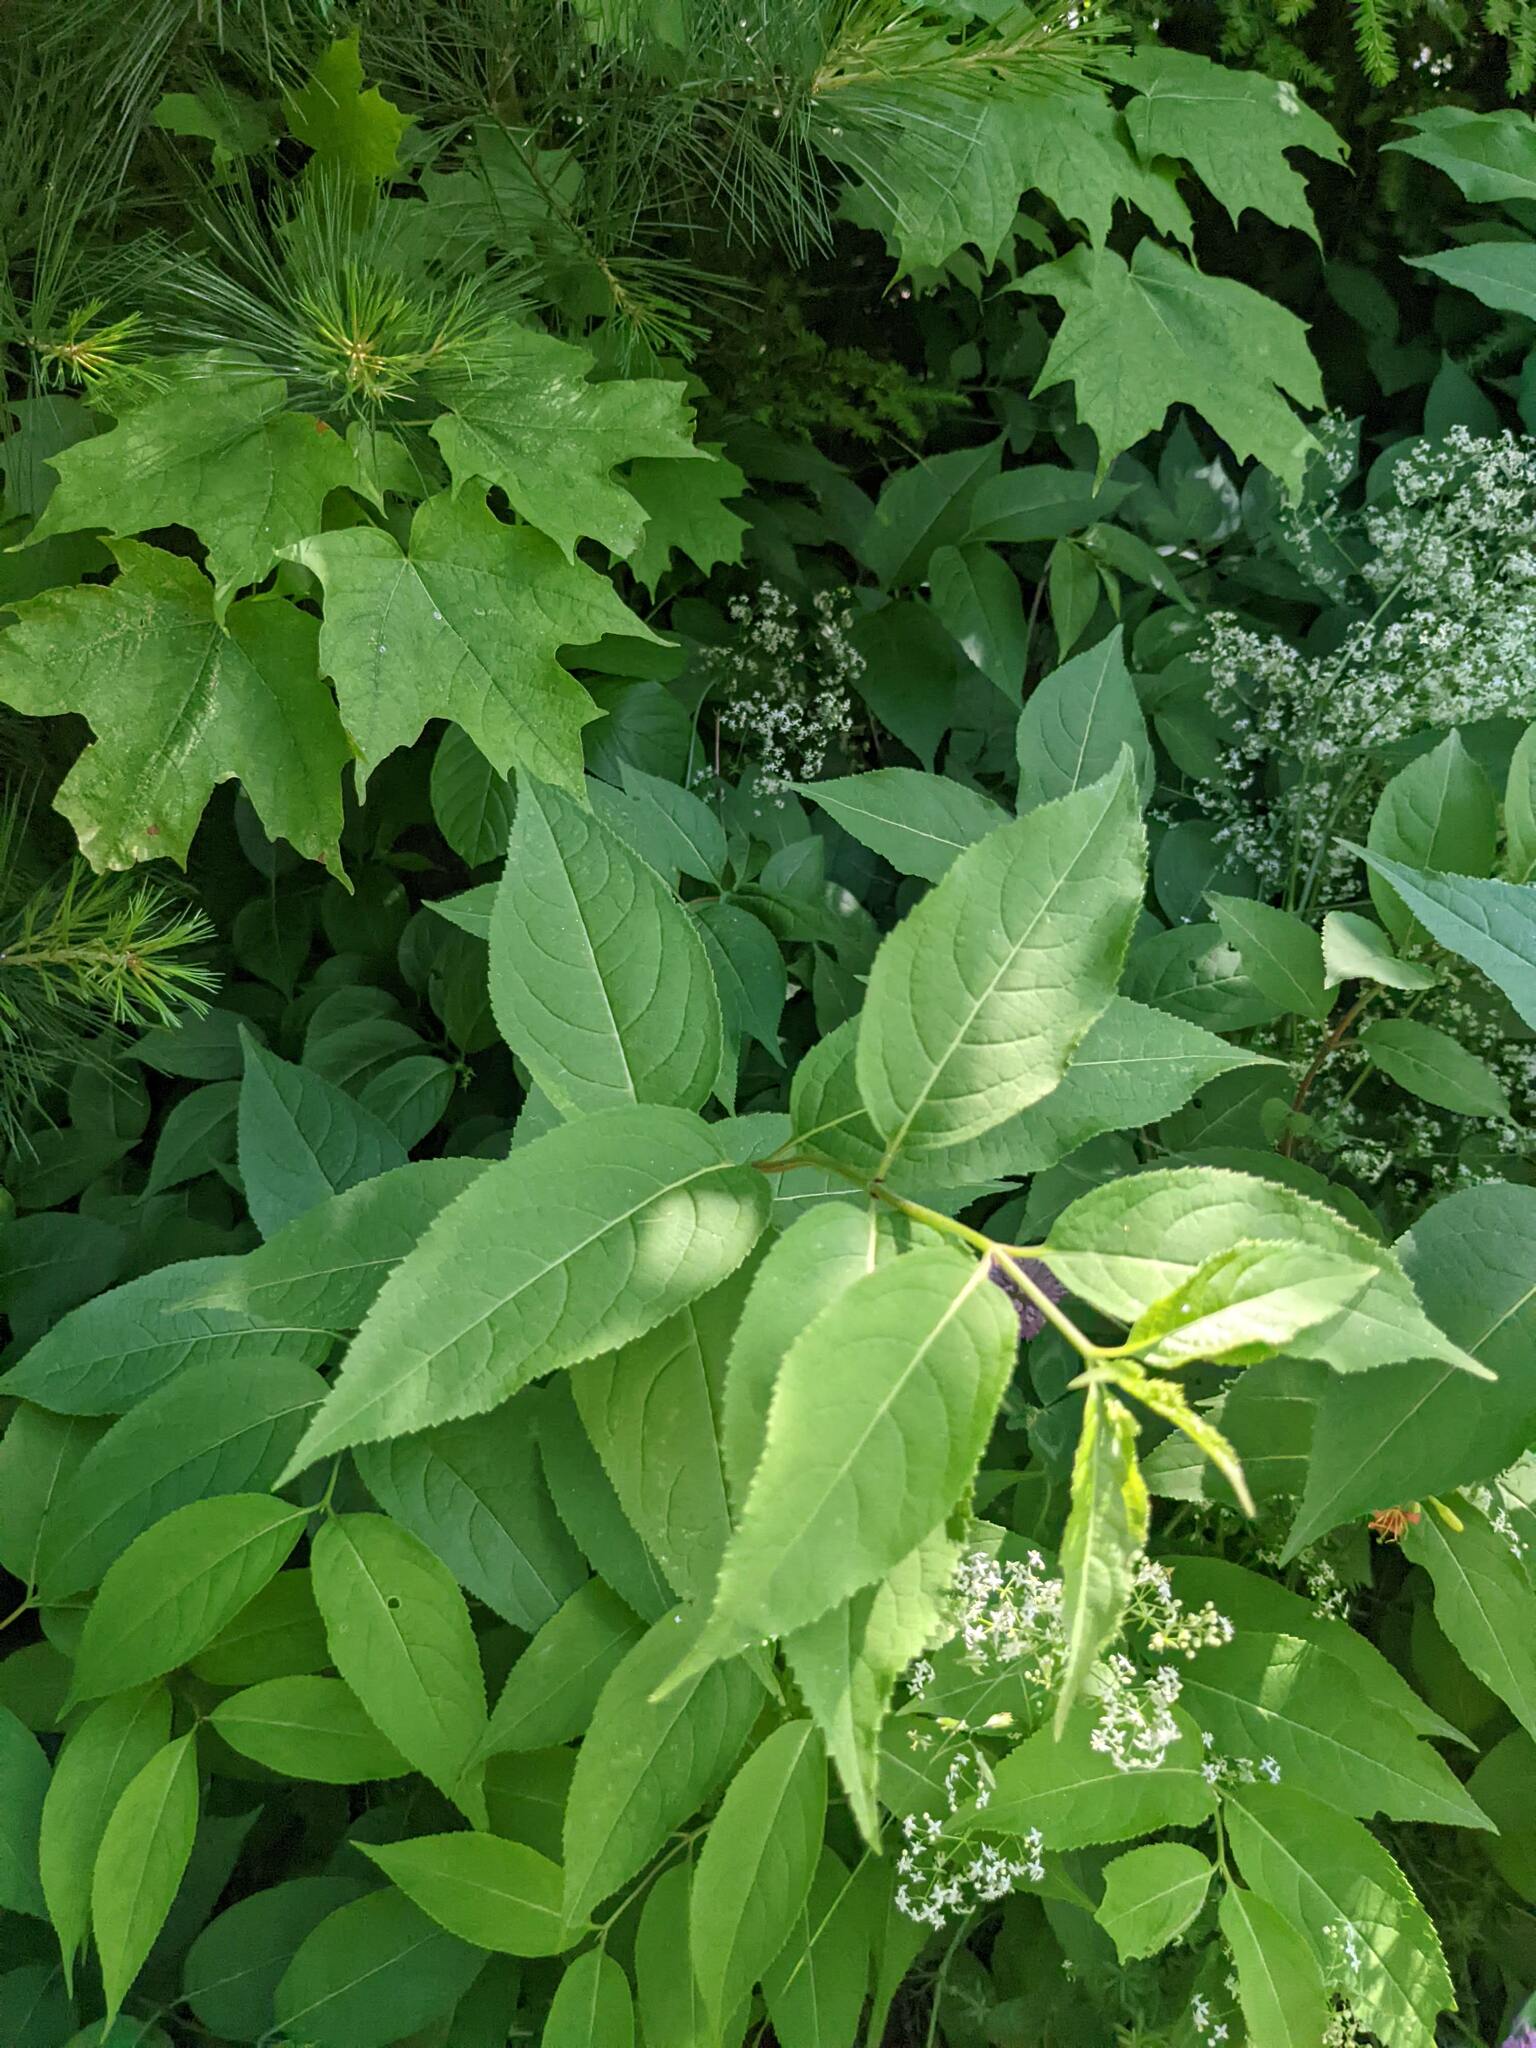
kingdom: Plantae
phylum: Tracheophyta
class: Magnoliopsida
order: Dipsacales
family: Caprifoliaceae
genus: Diervilla
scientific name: Diervilla lonicera
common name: Bush-honeysuckle
